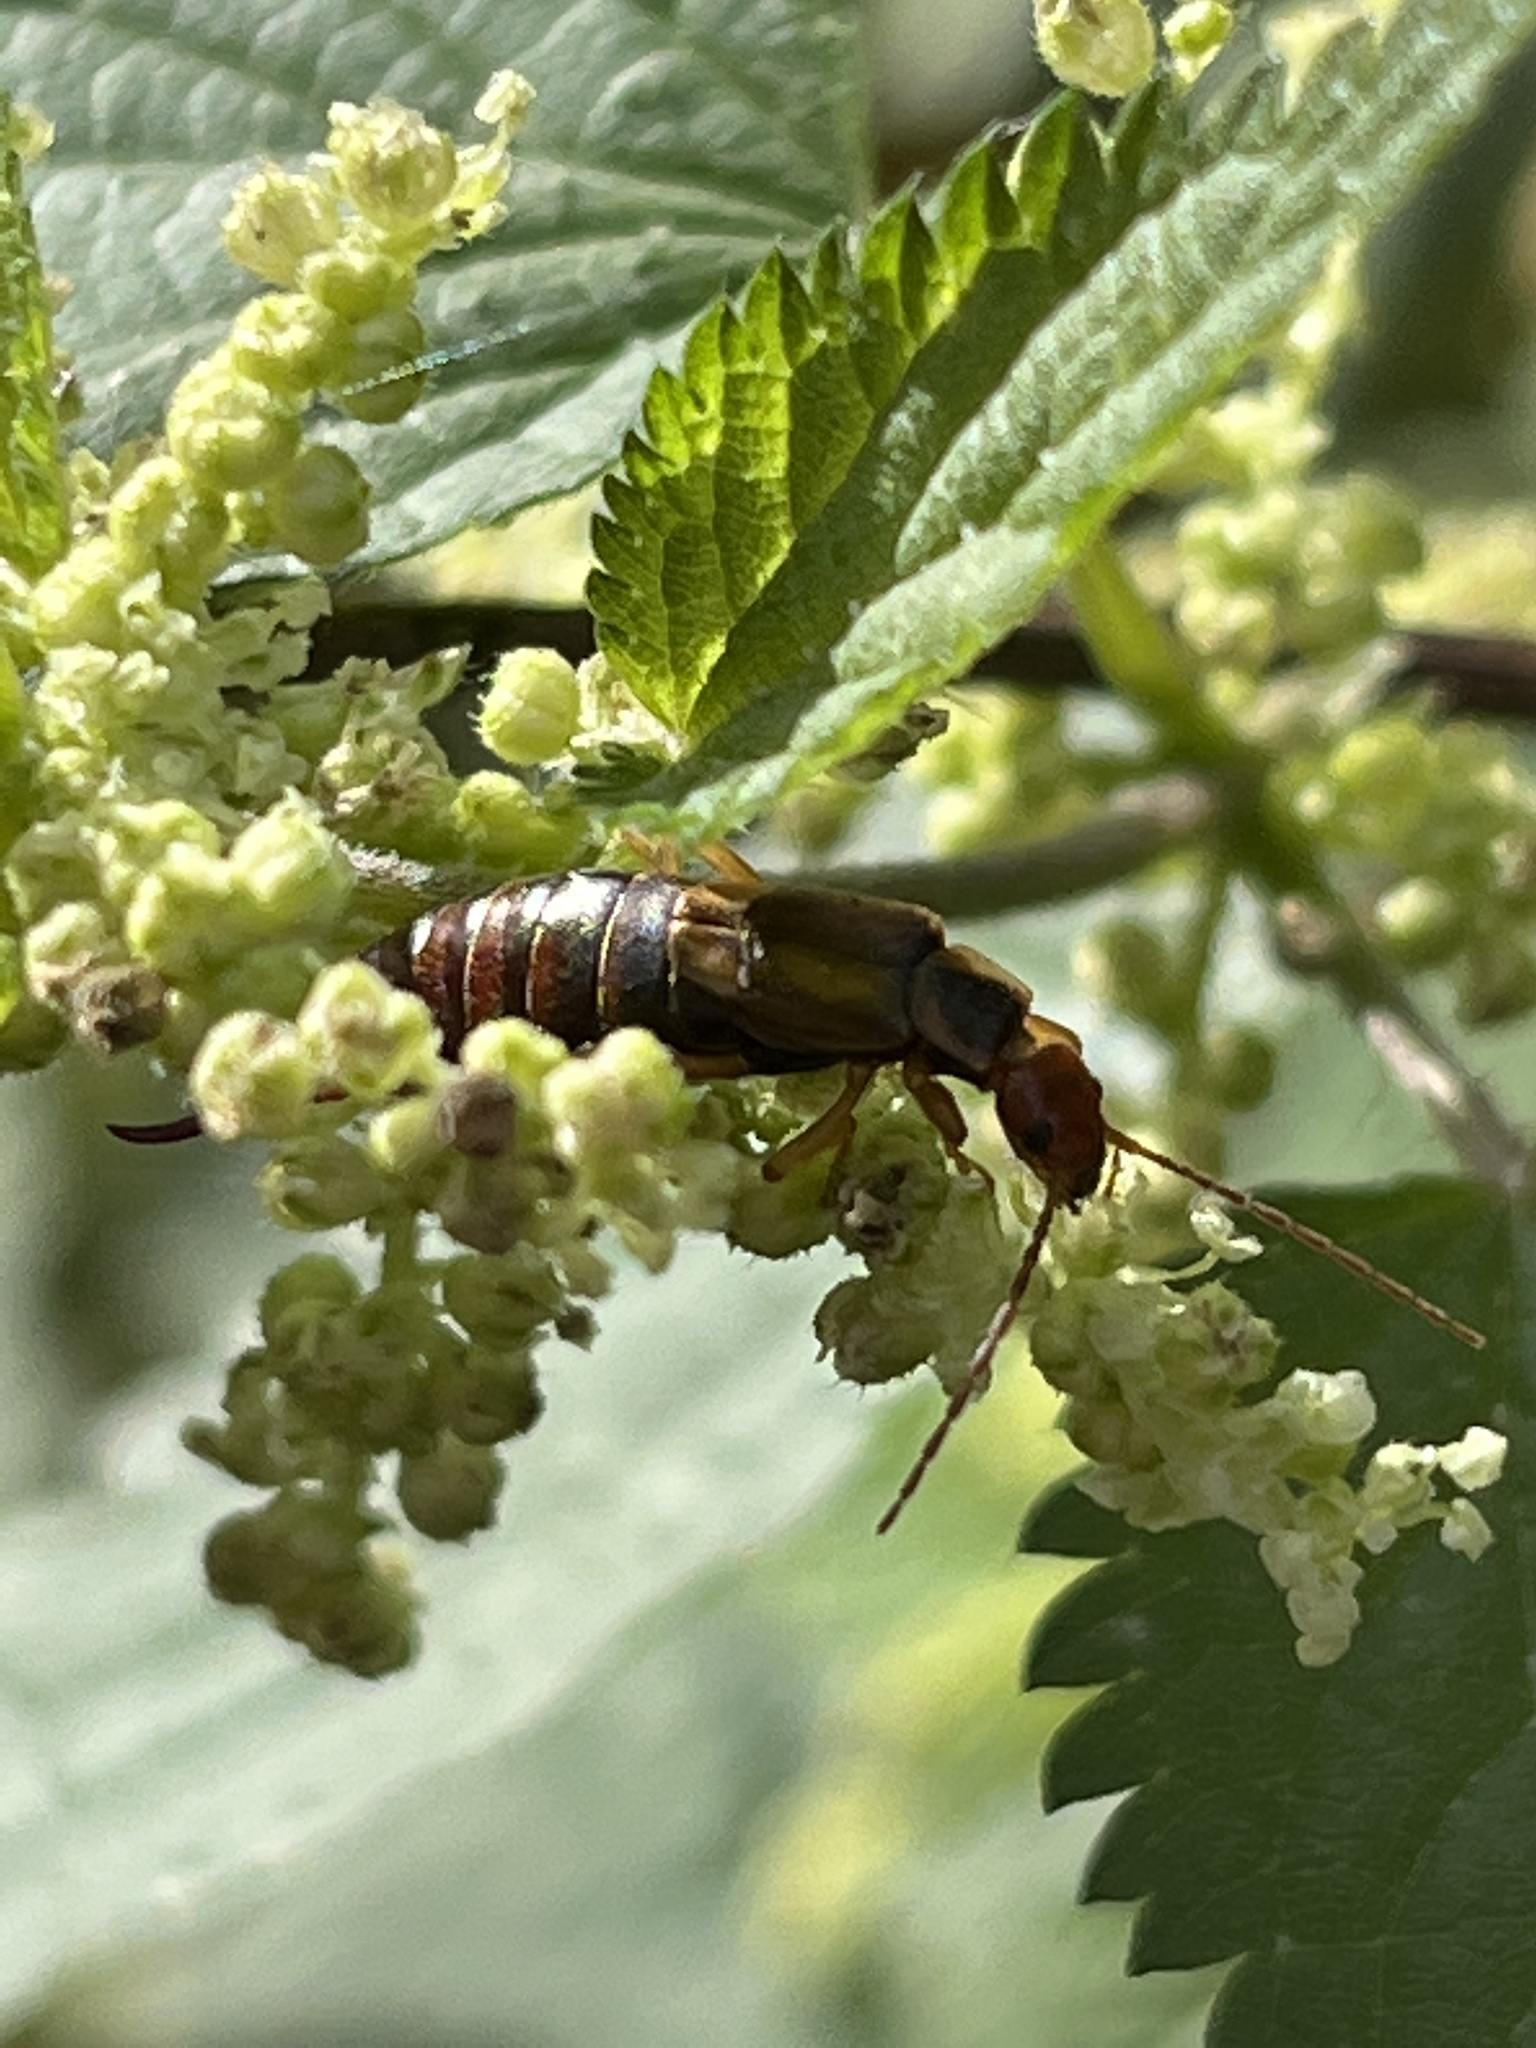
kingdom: Animalia
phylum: Arthropoda
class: Insecta
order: Dermaptera
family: Forficulidae
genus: Forficula
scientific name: Forficula
